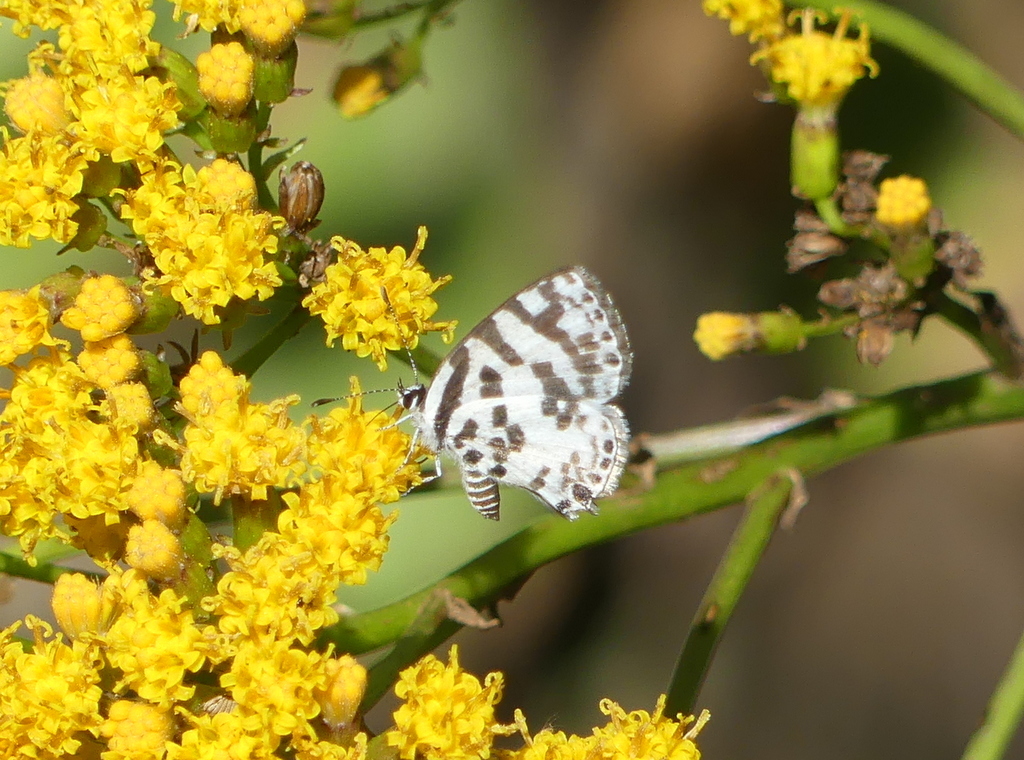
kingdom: Animalia
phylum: Arthropoda
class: Insecta
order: Lepidoptera
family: Lycaenidae
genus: Castalius
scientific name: Castalius melaena
